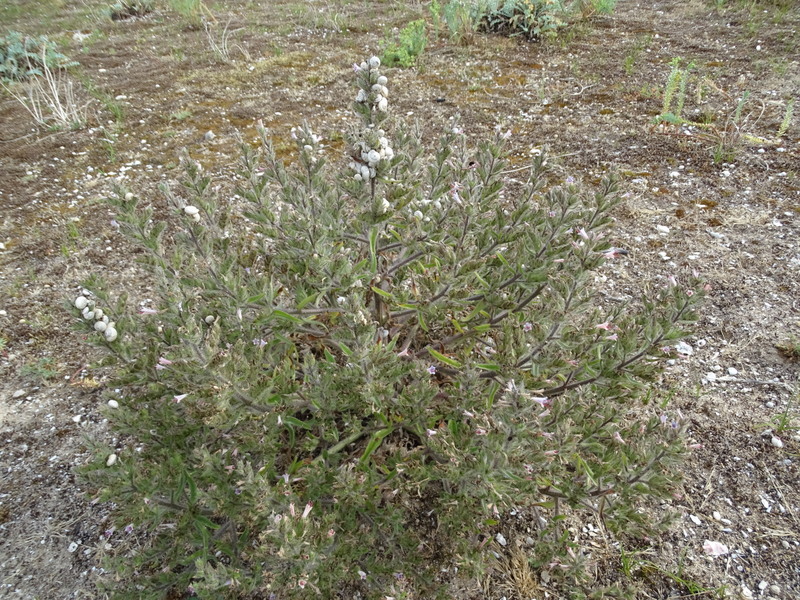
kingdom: Plantae
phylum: Tracheophyta
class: Magnoliopsida
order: Boraginales
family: Boraginaceae
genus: Echium
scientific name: Echium asperrimum
